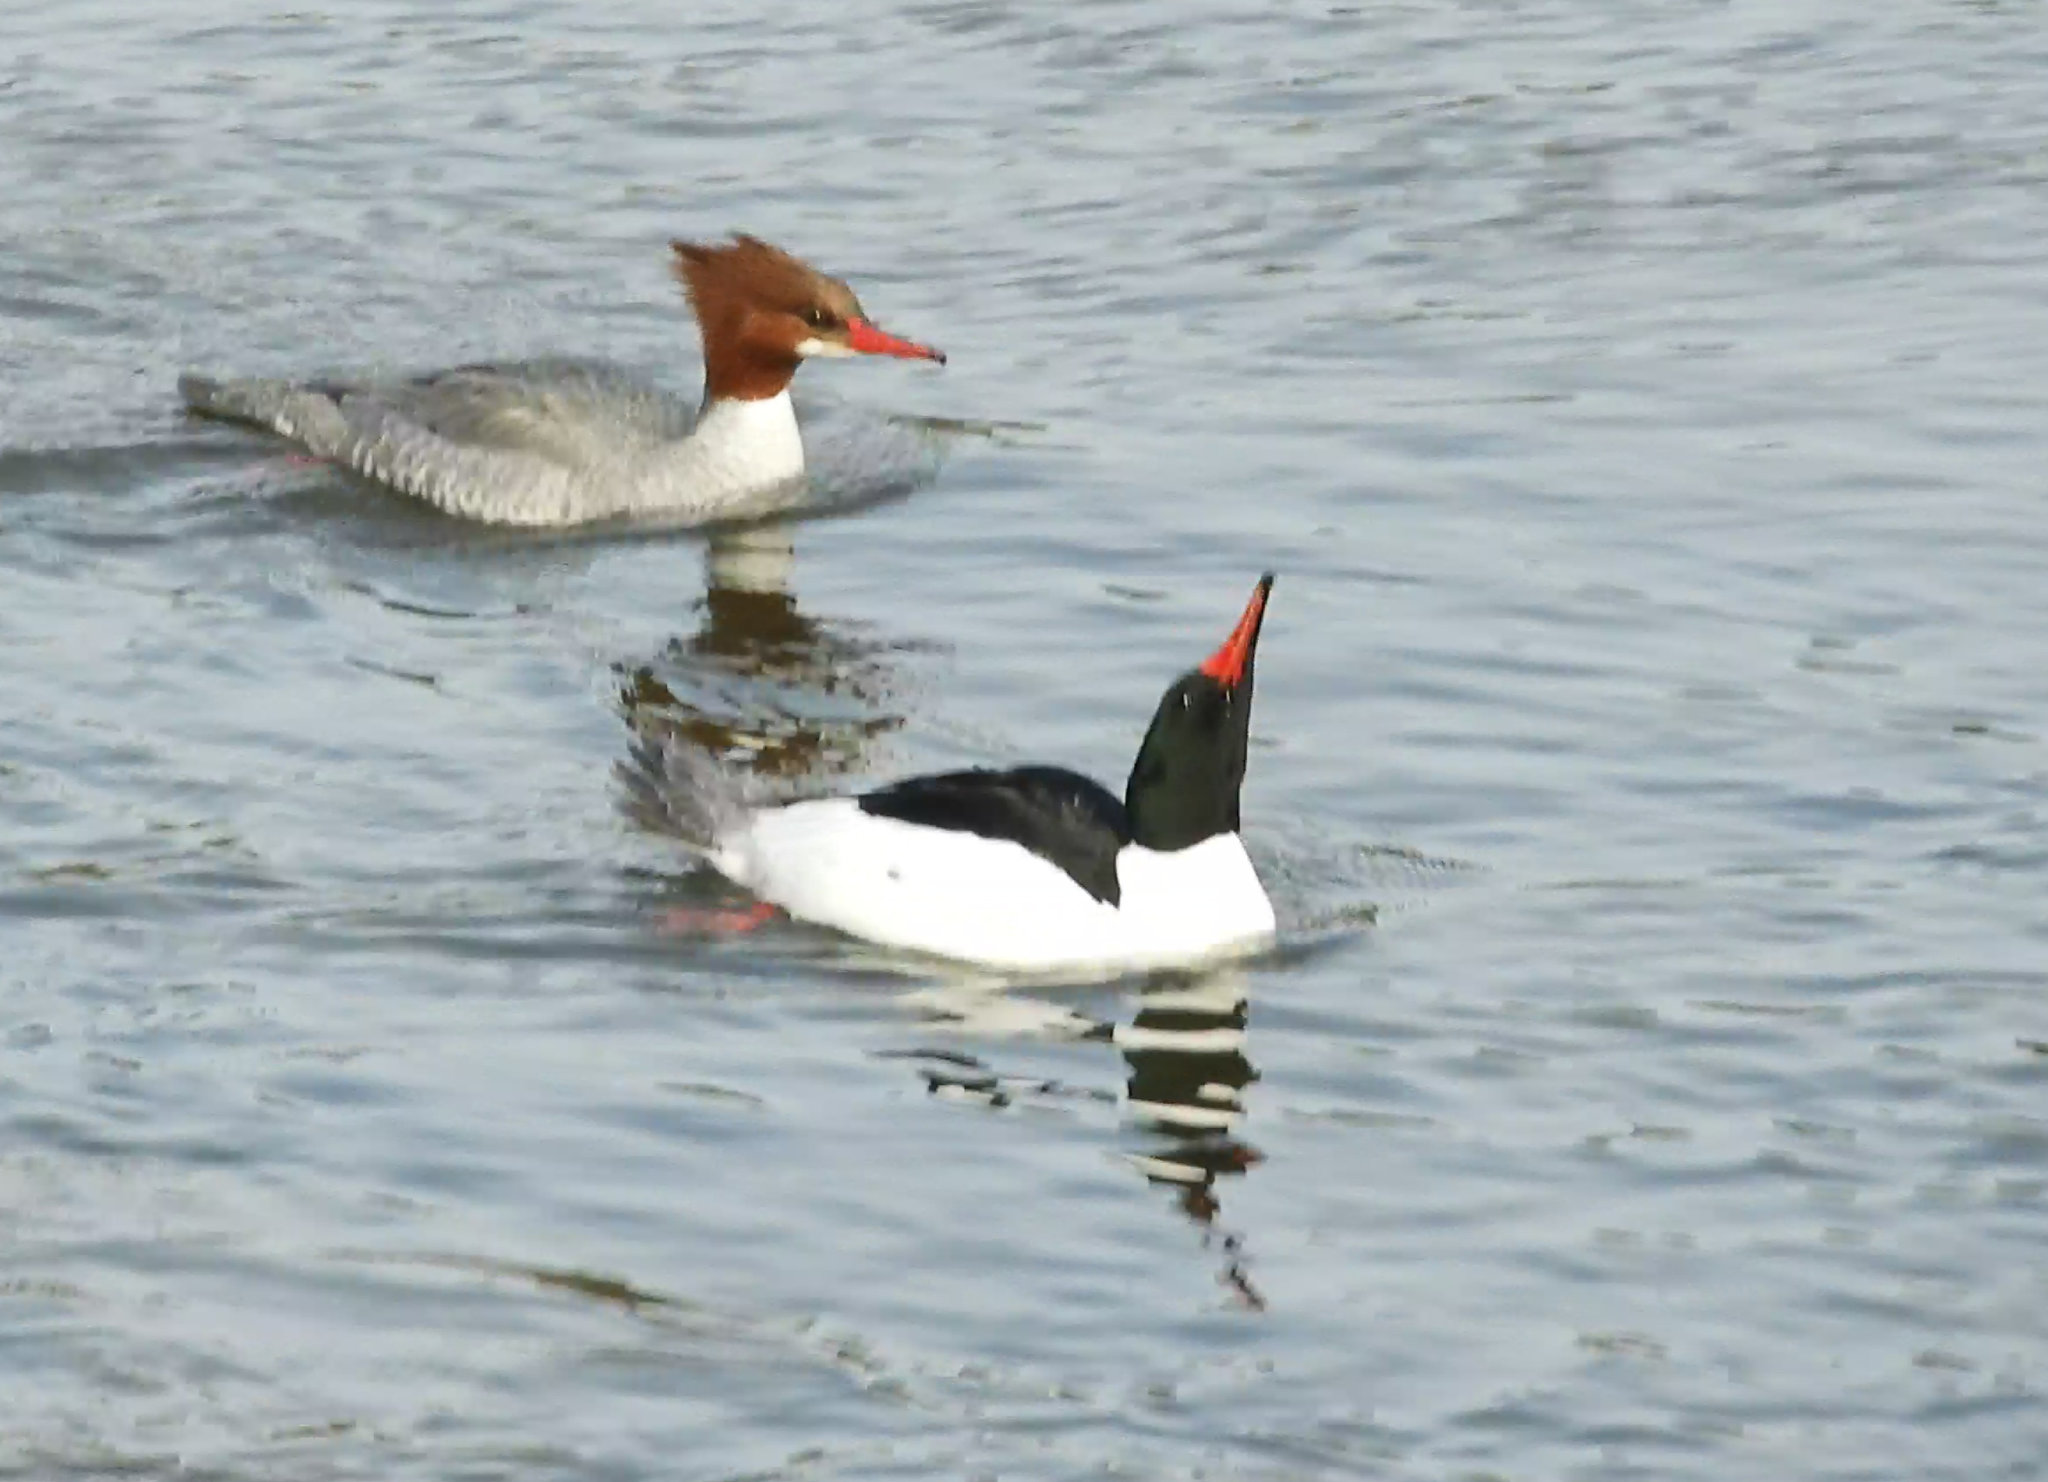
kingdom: Animalia
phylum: Chordata
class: Aves
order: Anseriformes
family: Anatidae
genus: Mergus
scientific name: Mergus merganser
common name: Common merganser
